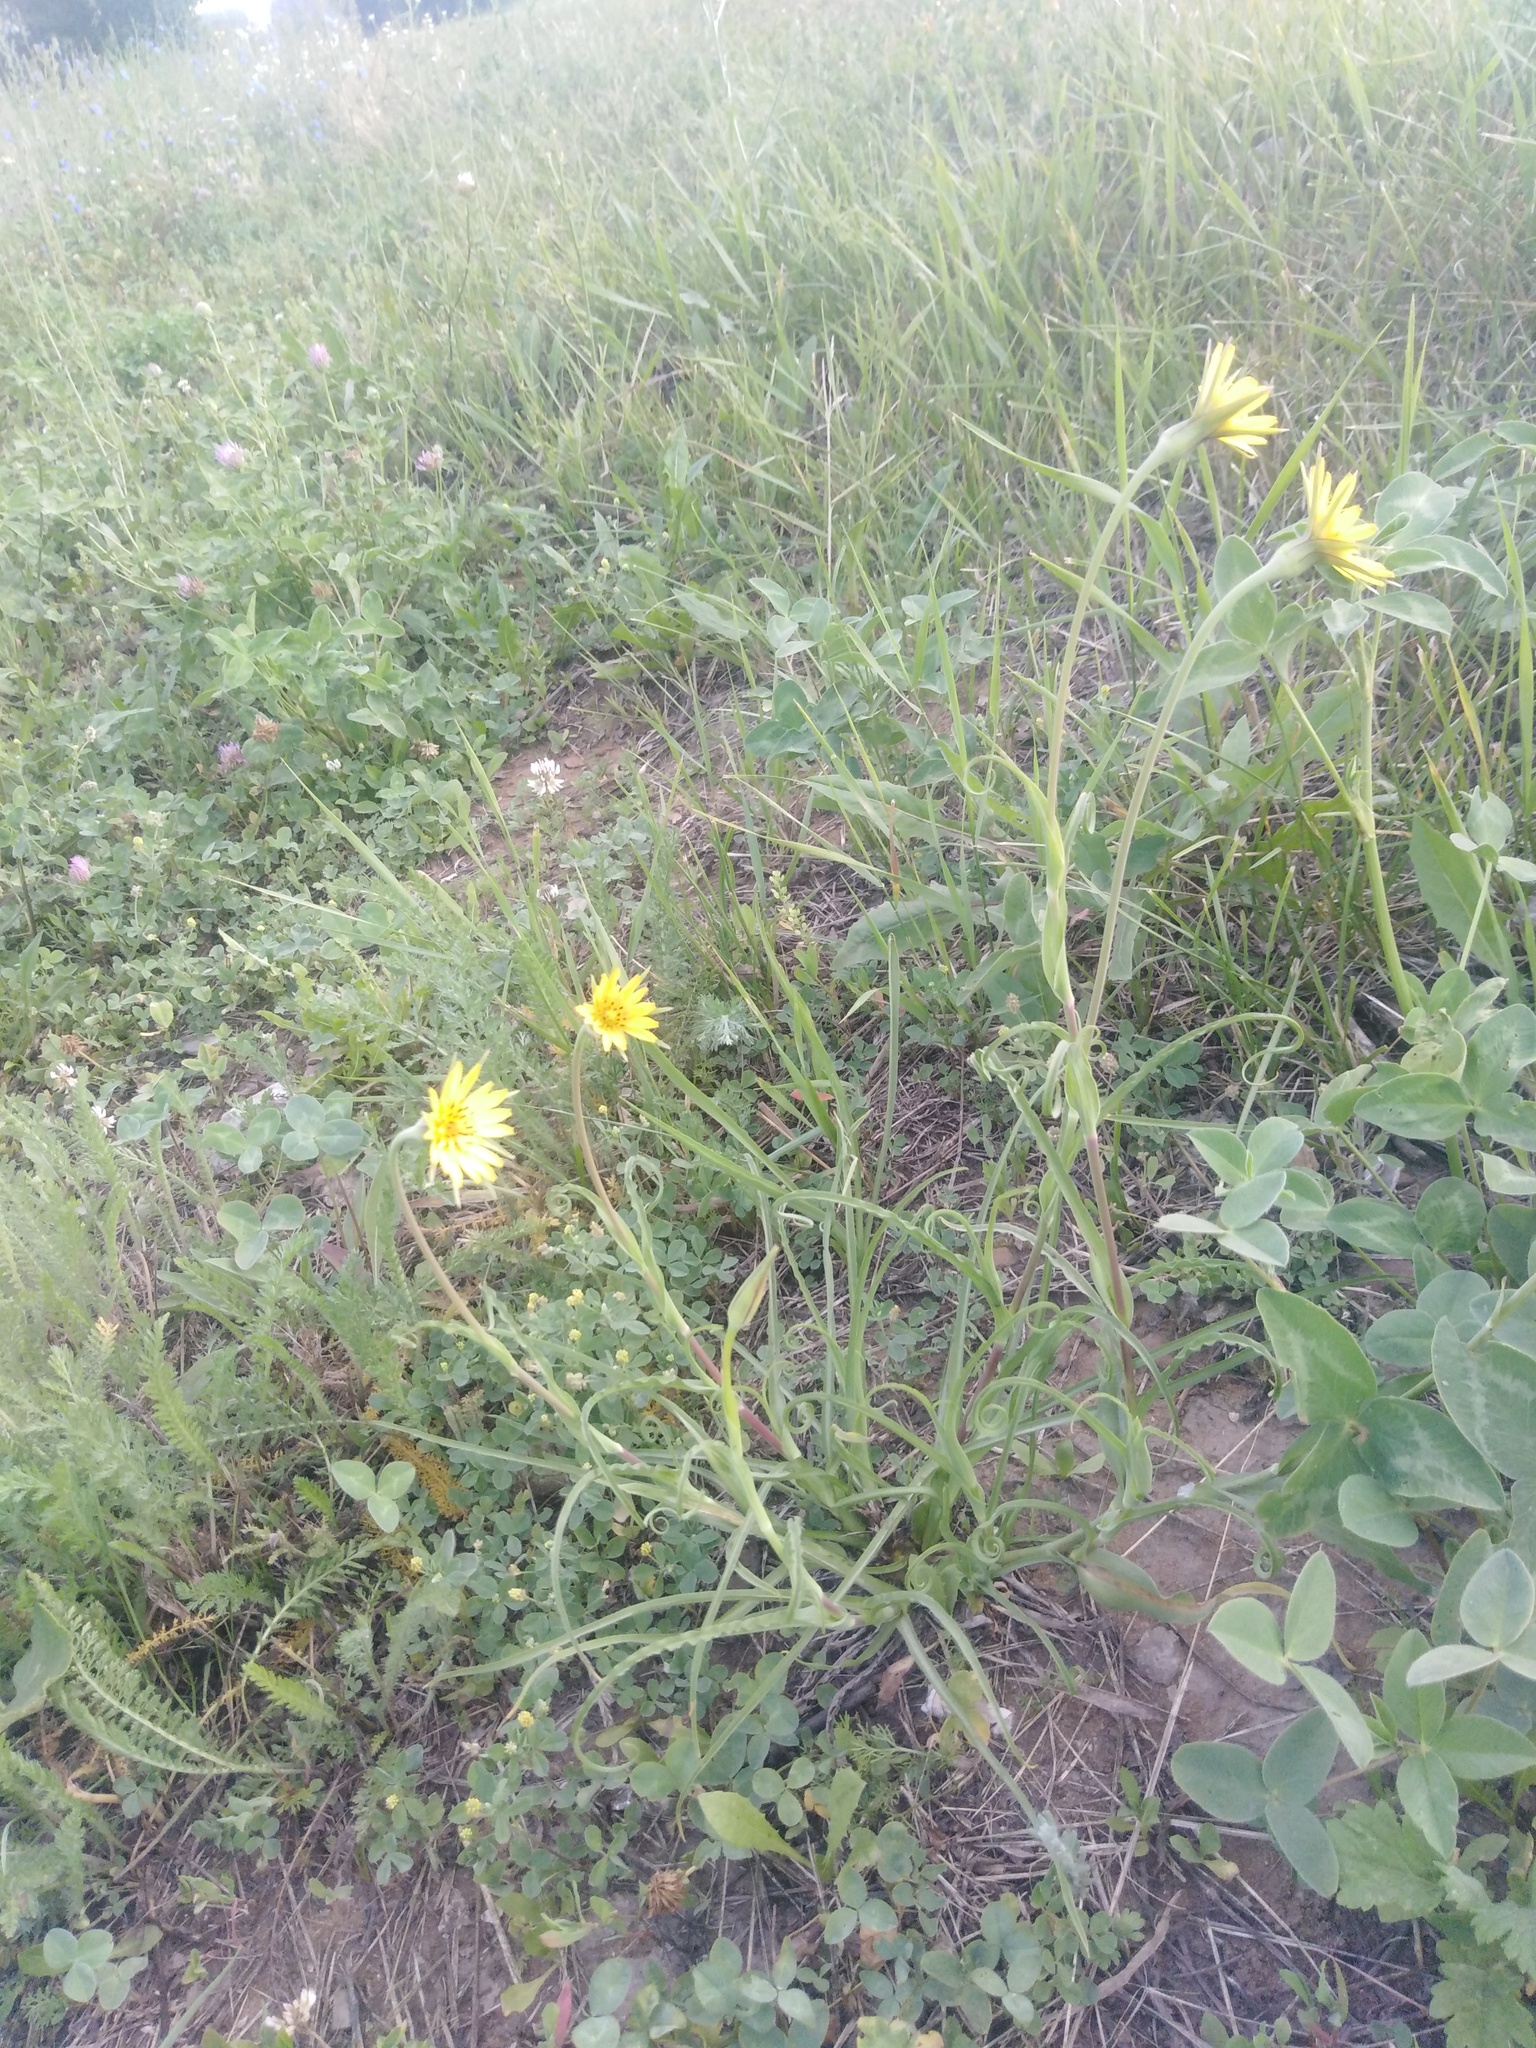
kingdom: Plantae
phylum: Tracheophyta
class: Magnoliopsida
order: Asterales
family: Asteraceae
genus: Tragopogon
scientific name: Tragopogon pratensis
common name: Goat's-beard
